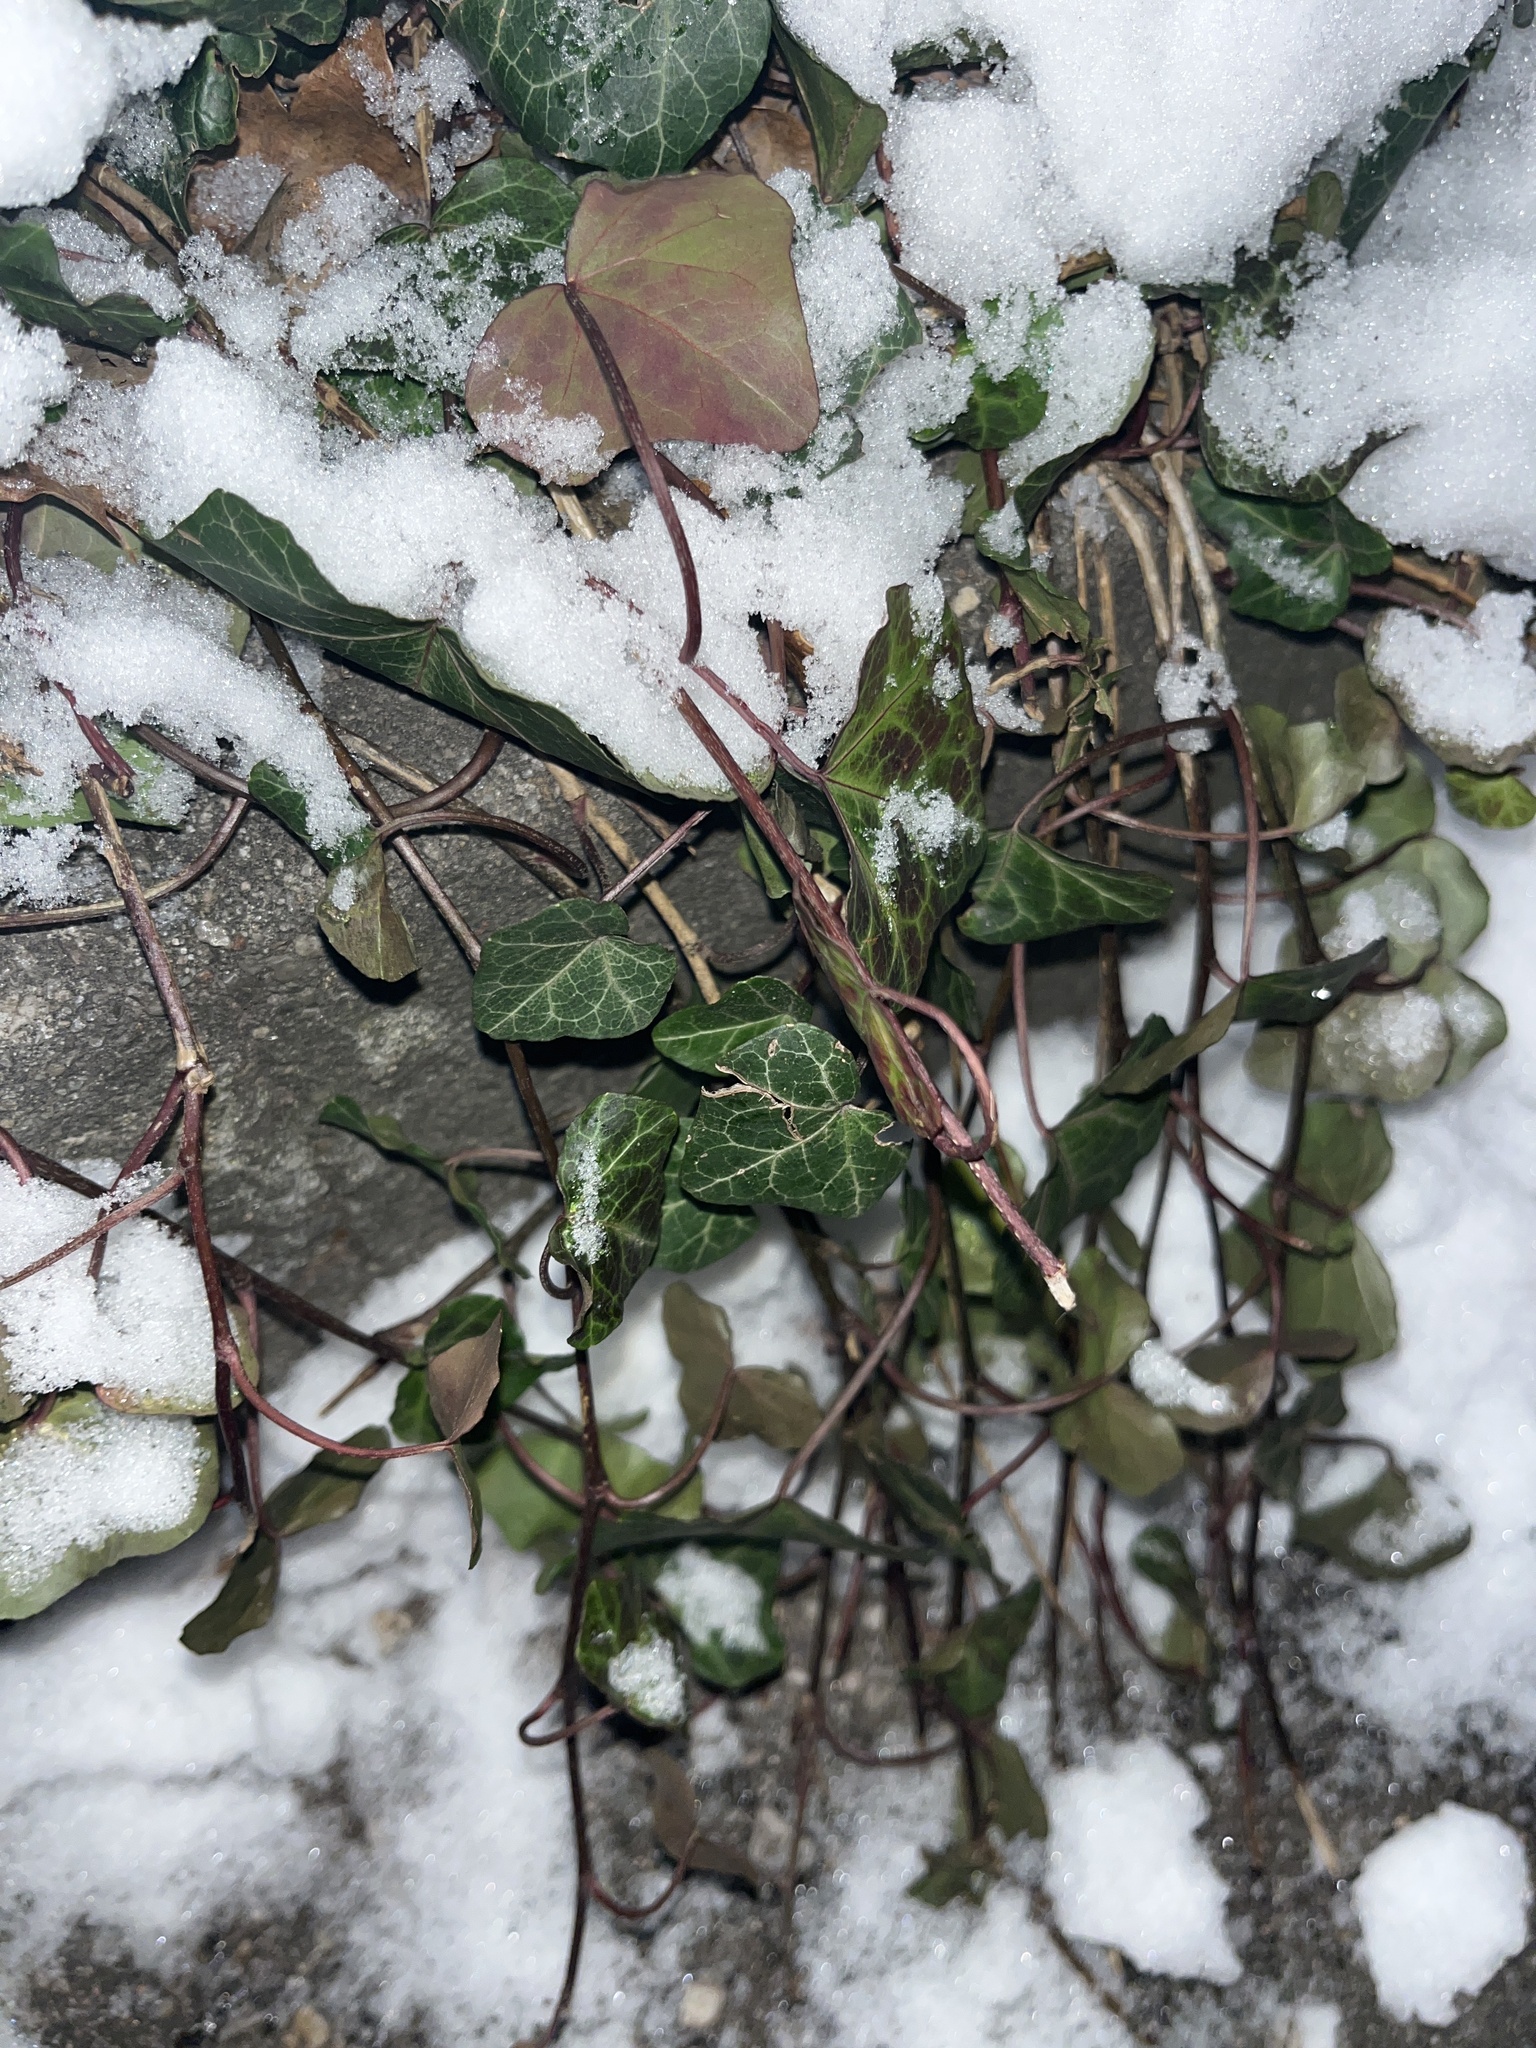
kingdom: Plantae
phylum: Tracheophyta
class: Magnoliopsida
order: Apiales
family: Araliaceae
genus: Hedera
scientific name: Hedera helix
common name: Ivy
